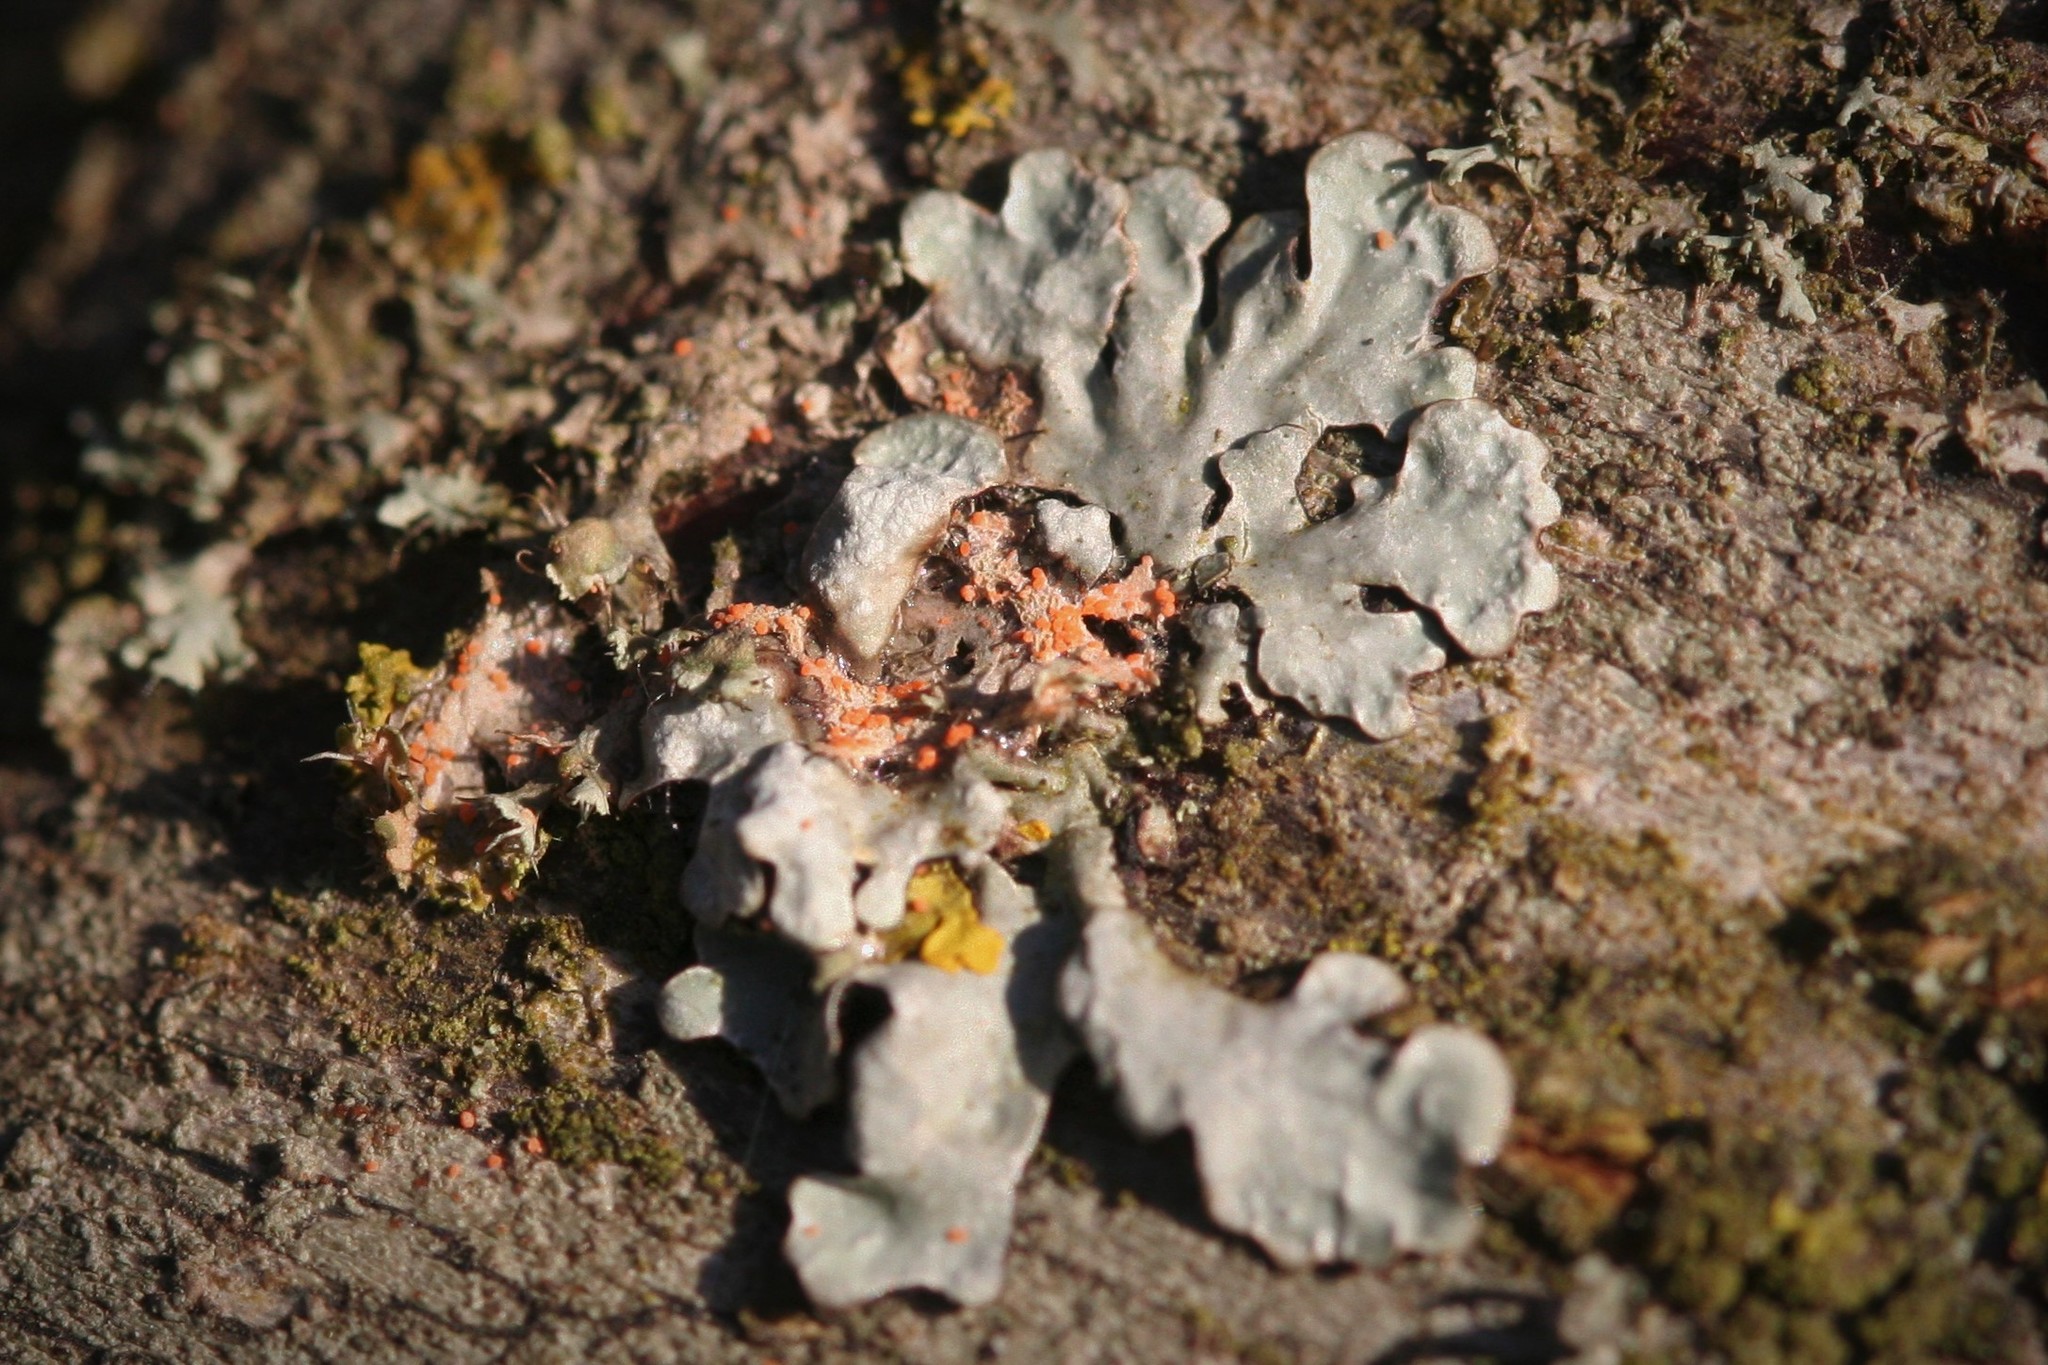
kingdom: Fungi
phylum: Basidiomycota
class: Agaricomycetes
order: Corticiales
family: Corticiaceae
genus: Erythricium
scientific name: Erythricium aurantiacum
